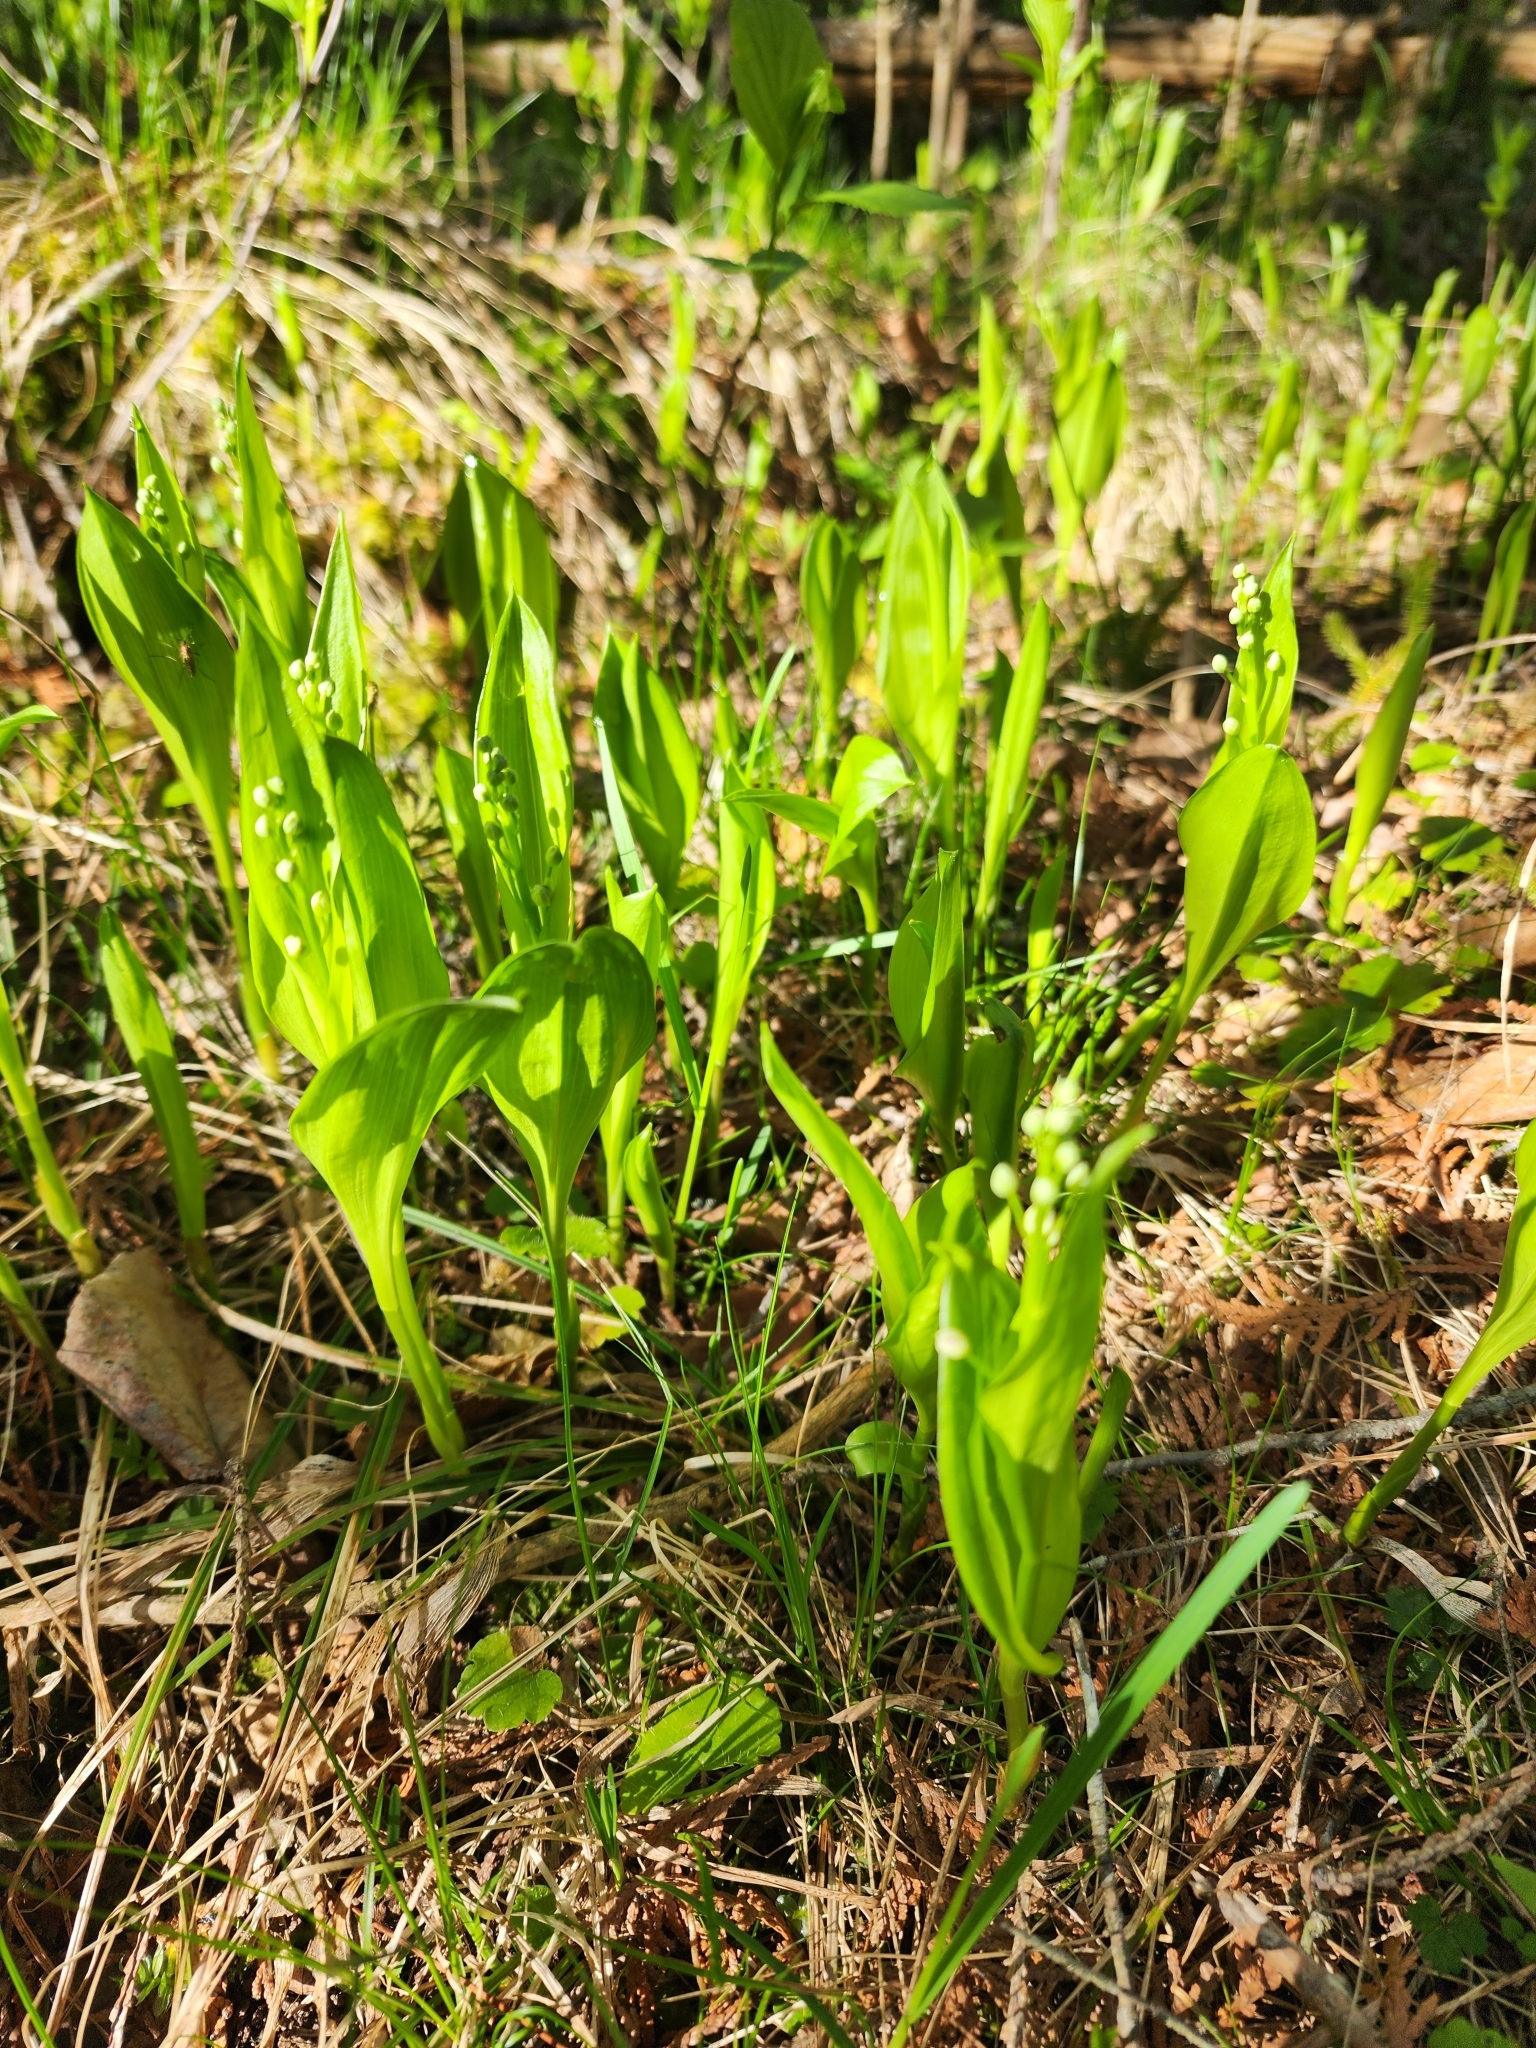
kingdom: Plantae
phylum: Tracheophyta
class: Liliopsida
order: Asparagales
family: Asparagaceae
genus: Maianthemum
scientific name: Maianthemum trifolium
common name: Swamp false solomon's seal
